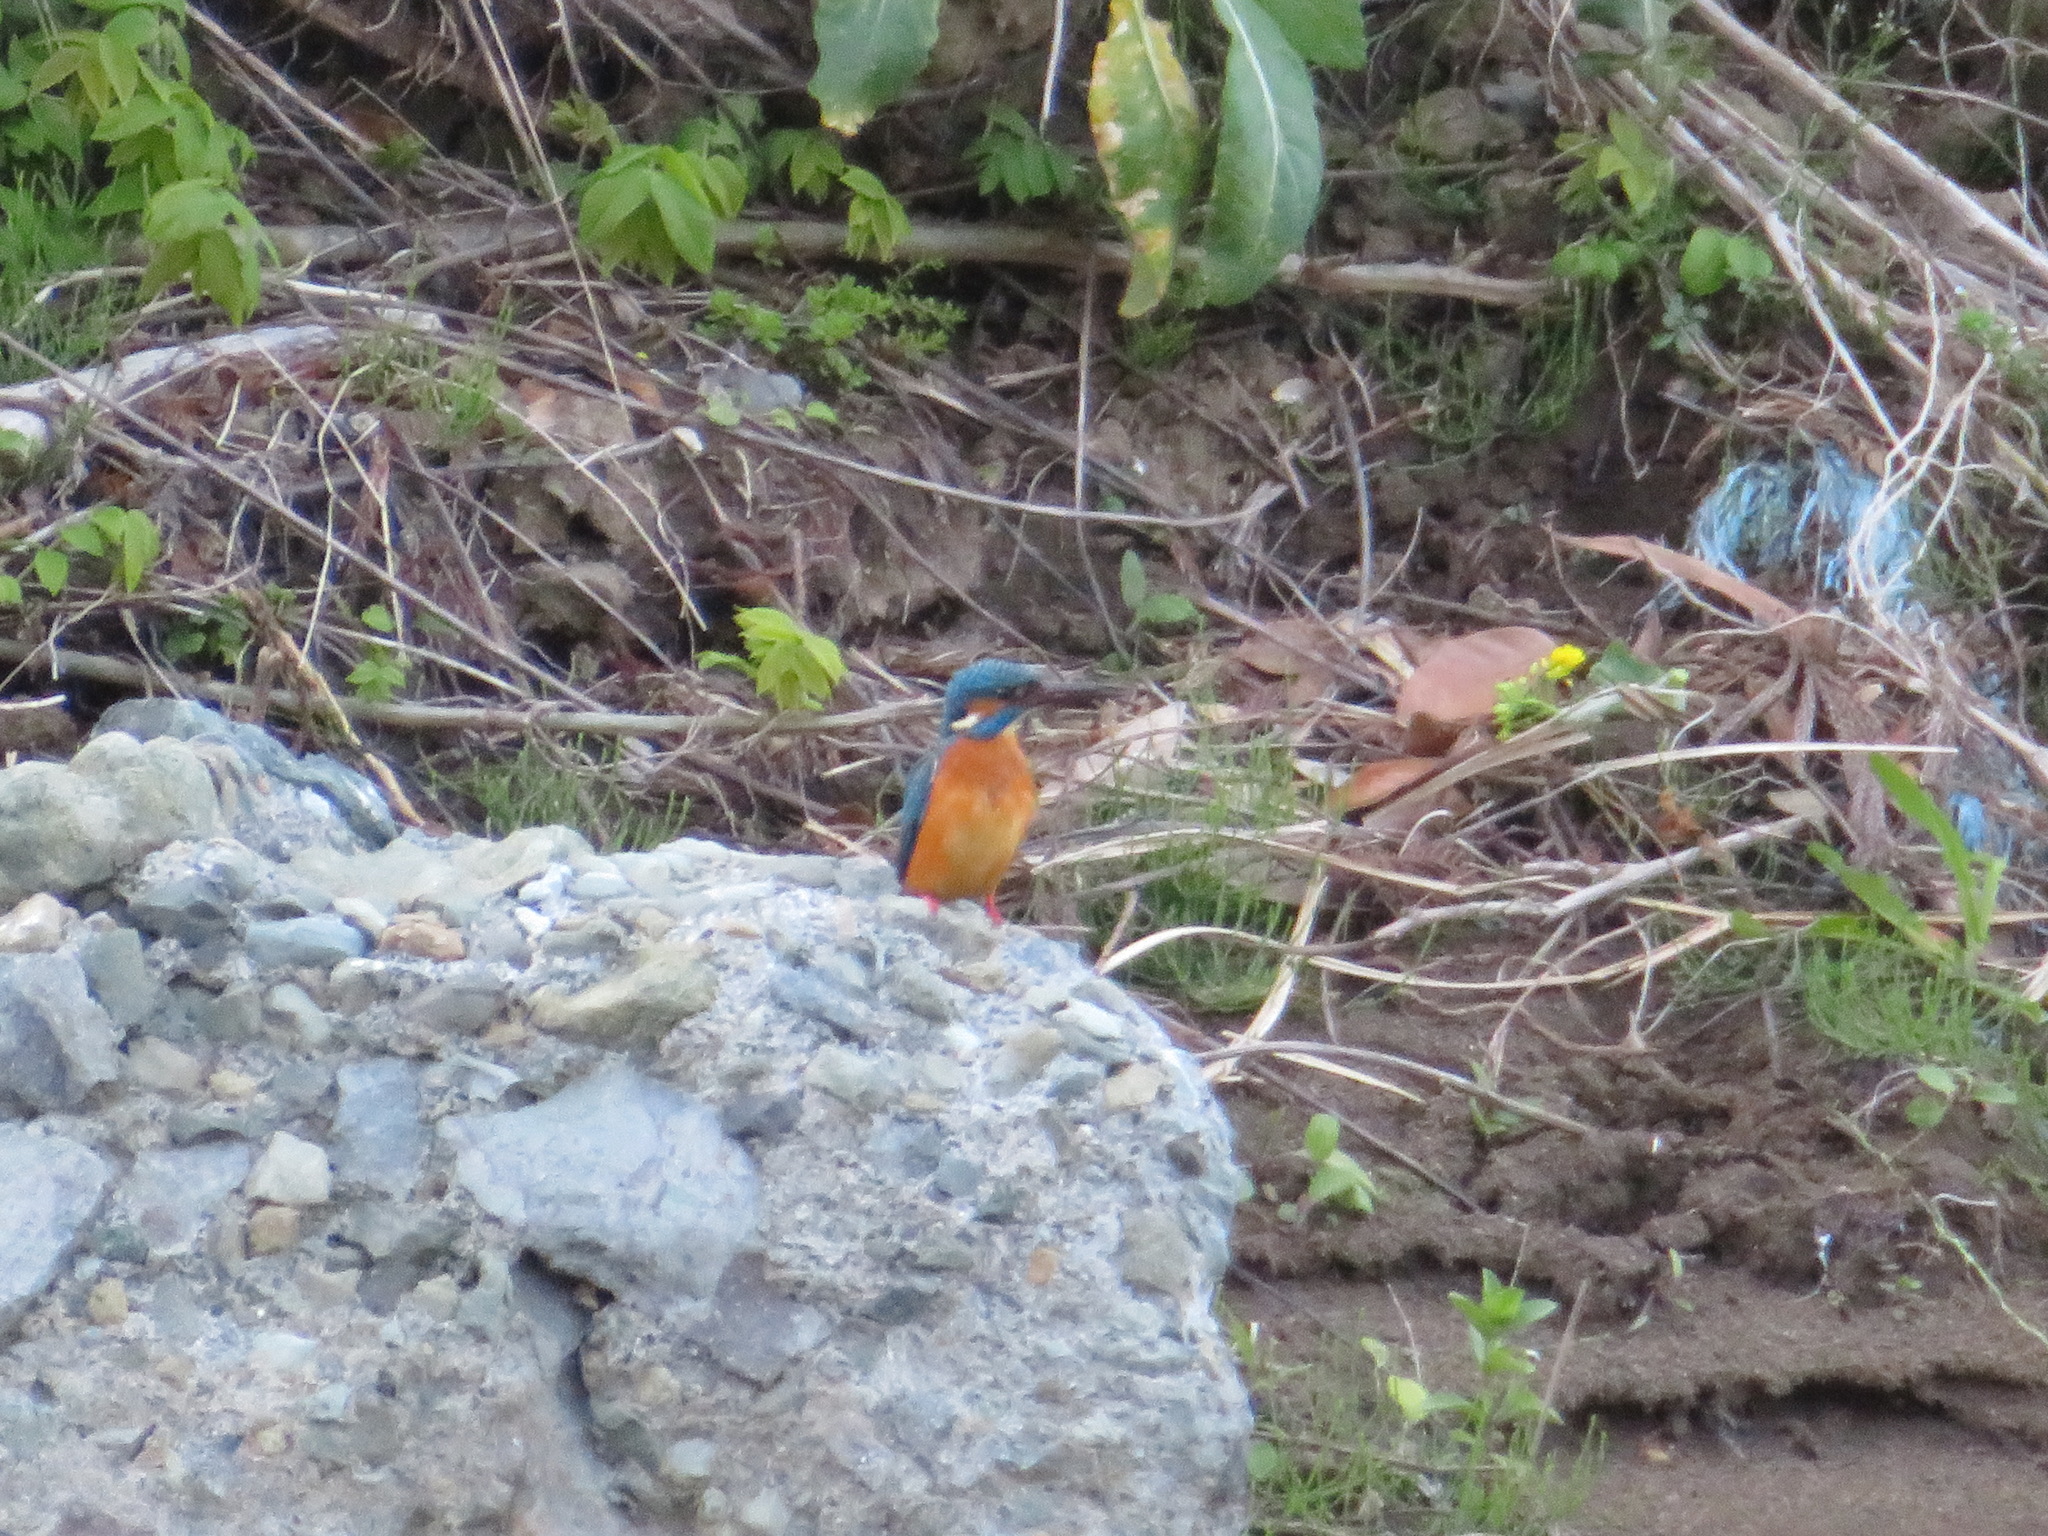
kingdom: Animalia
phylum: Chordata
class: Aves
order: Coraciiformes
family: Alcedinidae
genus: Alcedo
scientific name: Alcedo atthis
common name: Common kingfisher
